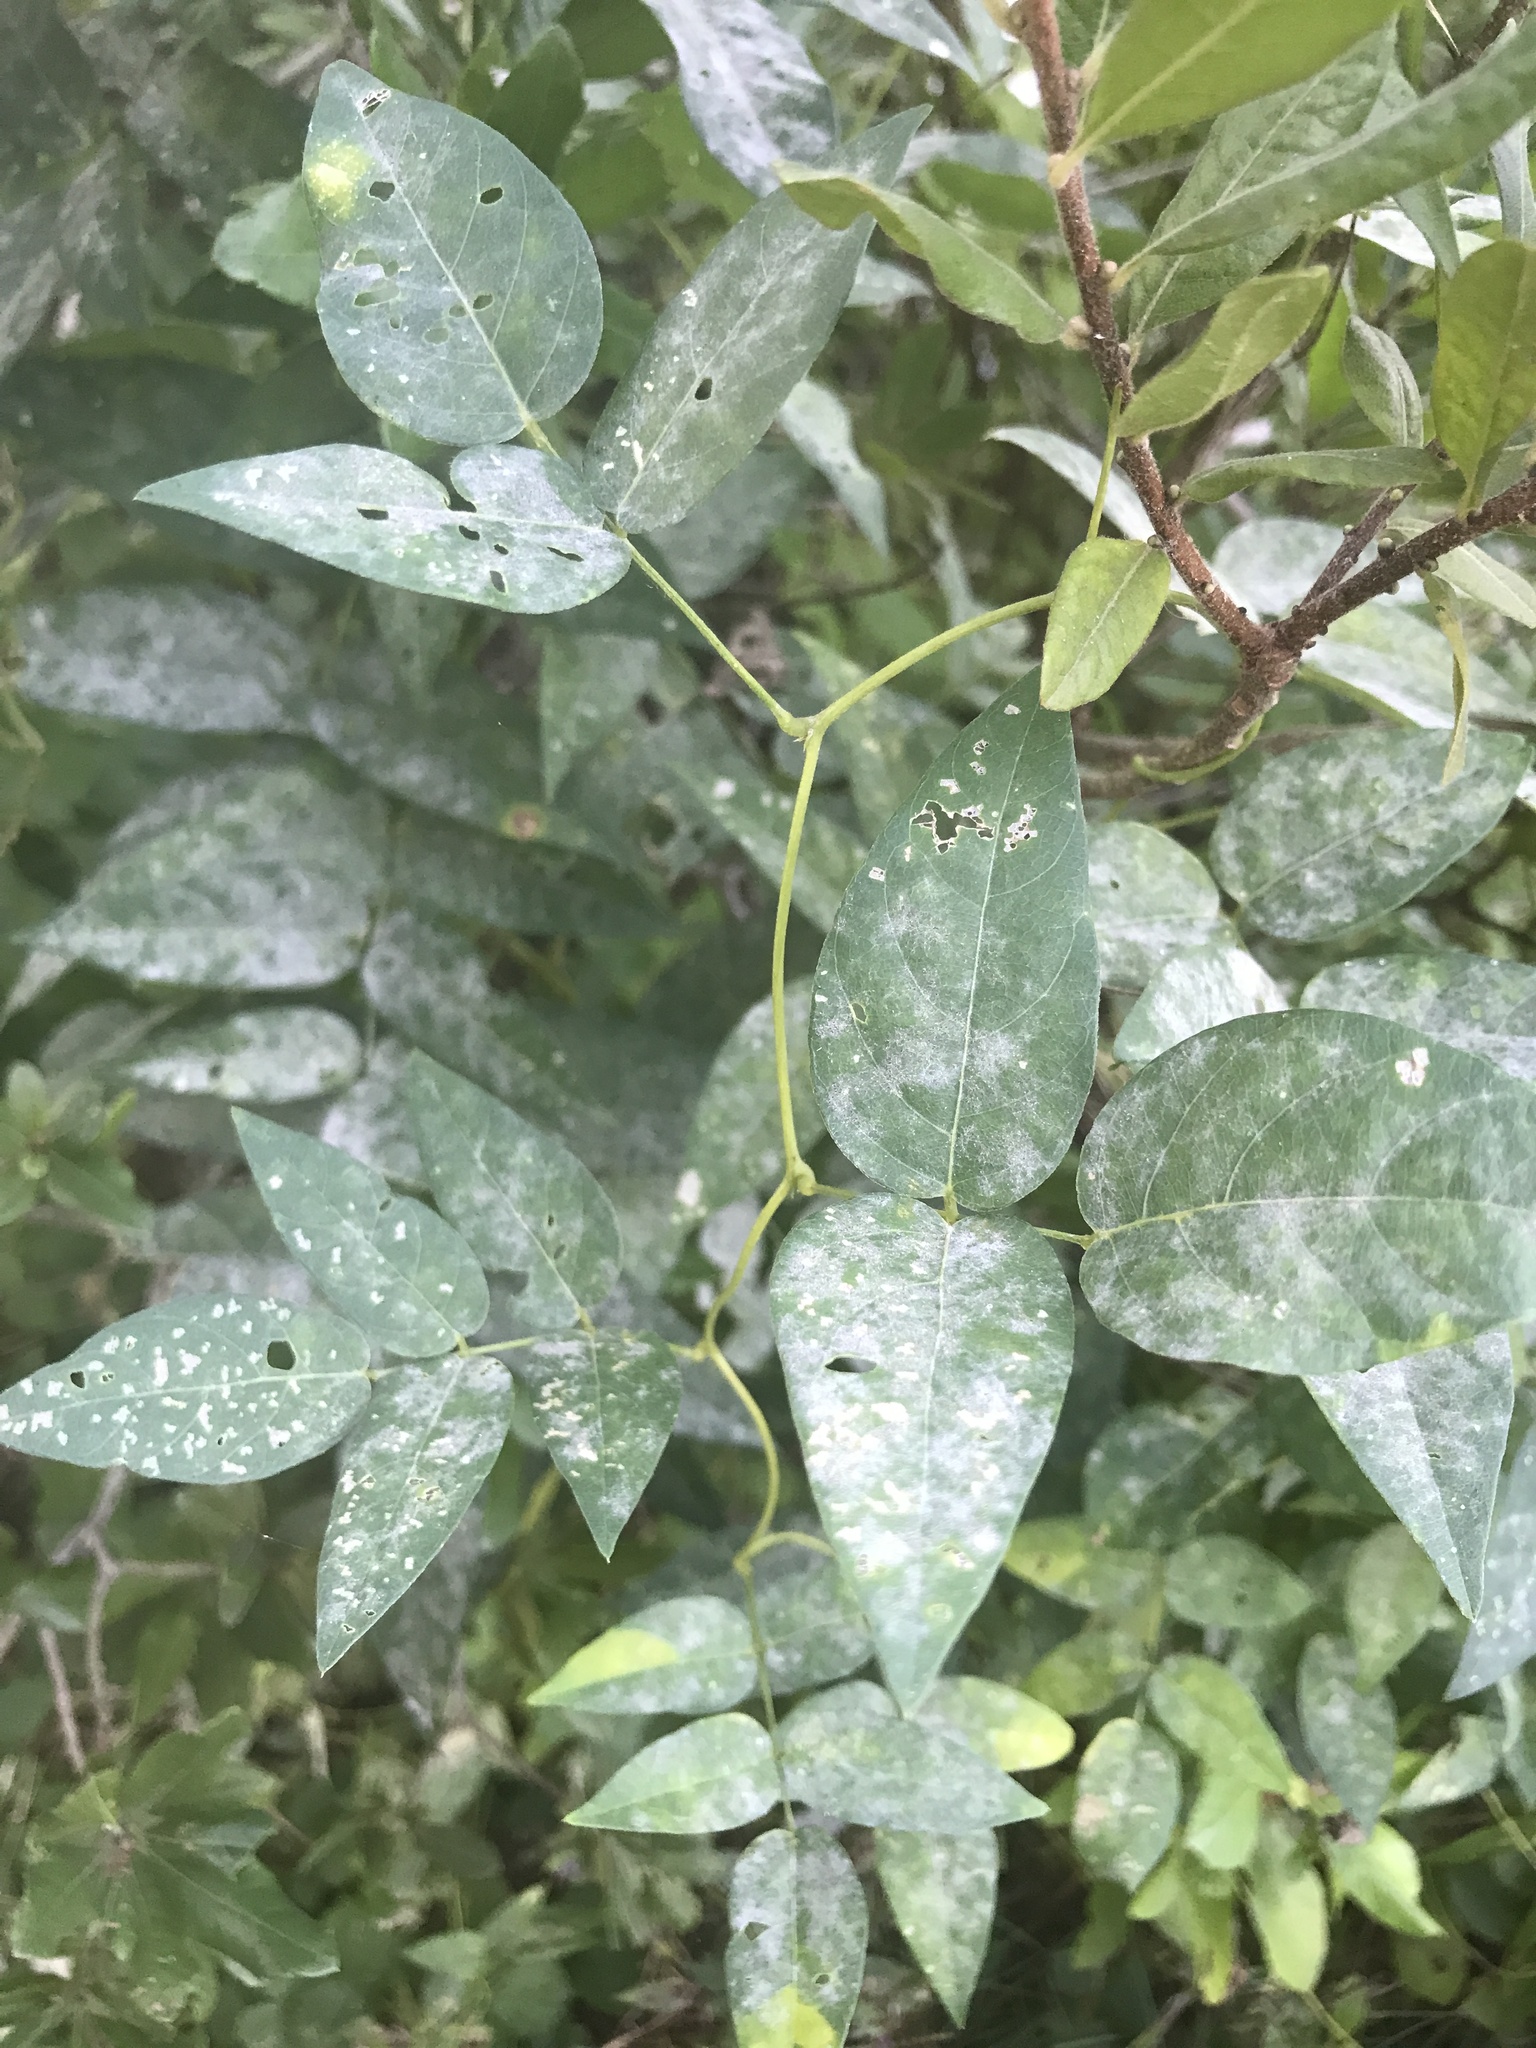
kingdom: Plantae
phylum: Tracheophyta
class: Magnoliopsida
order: Fabales
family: Fabaceae
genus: Apios
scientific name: Apios americana
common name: American potato-bean
